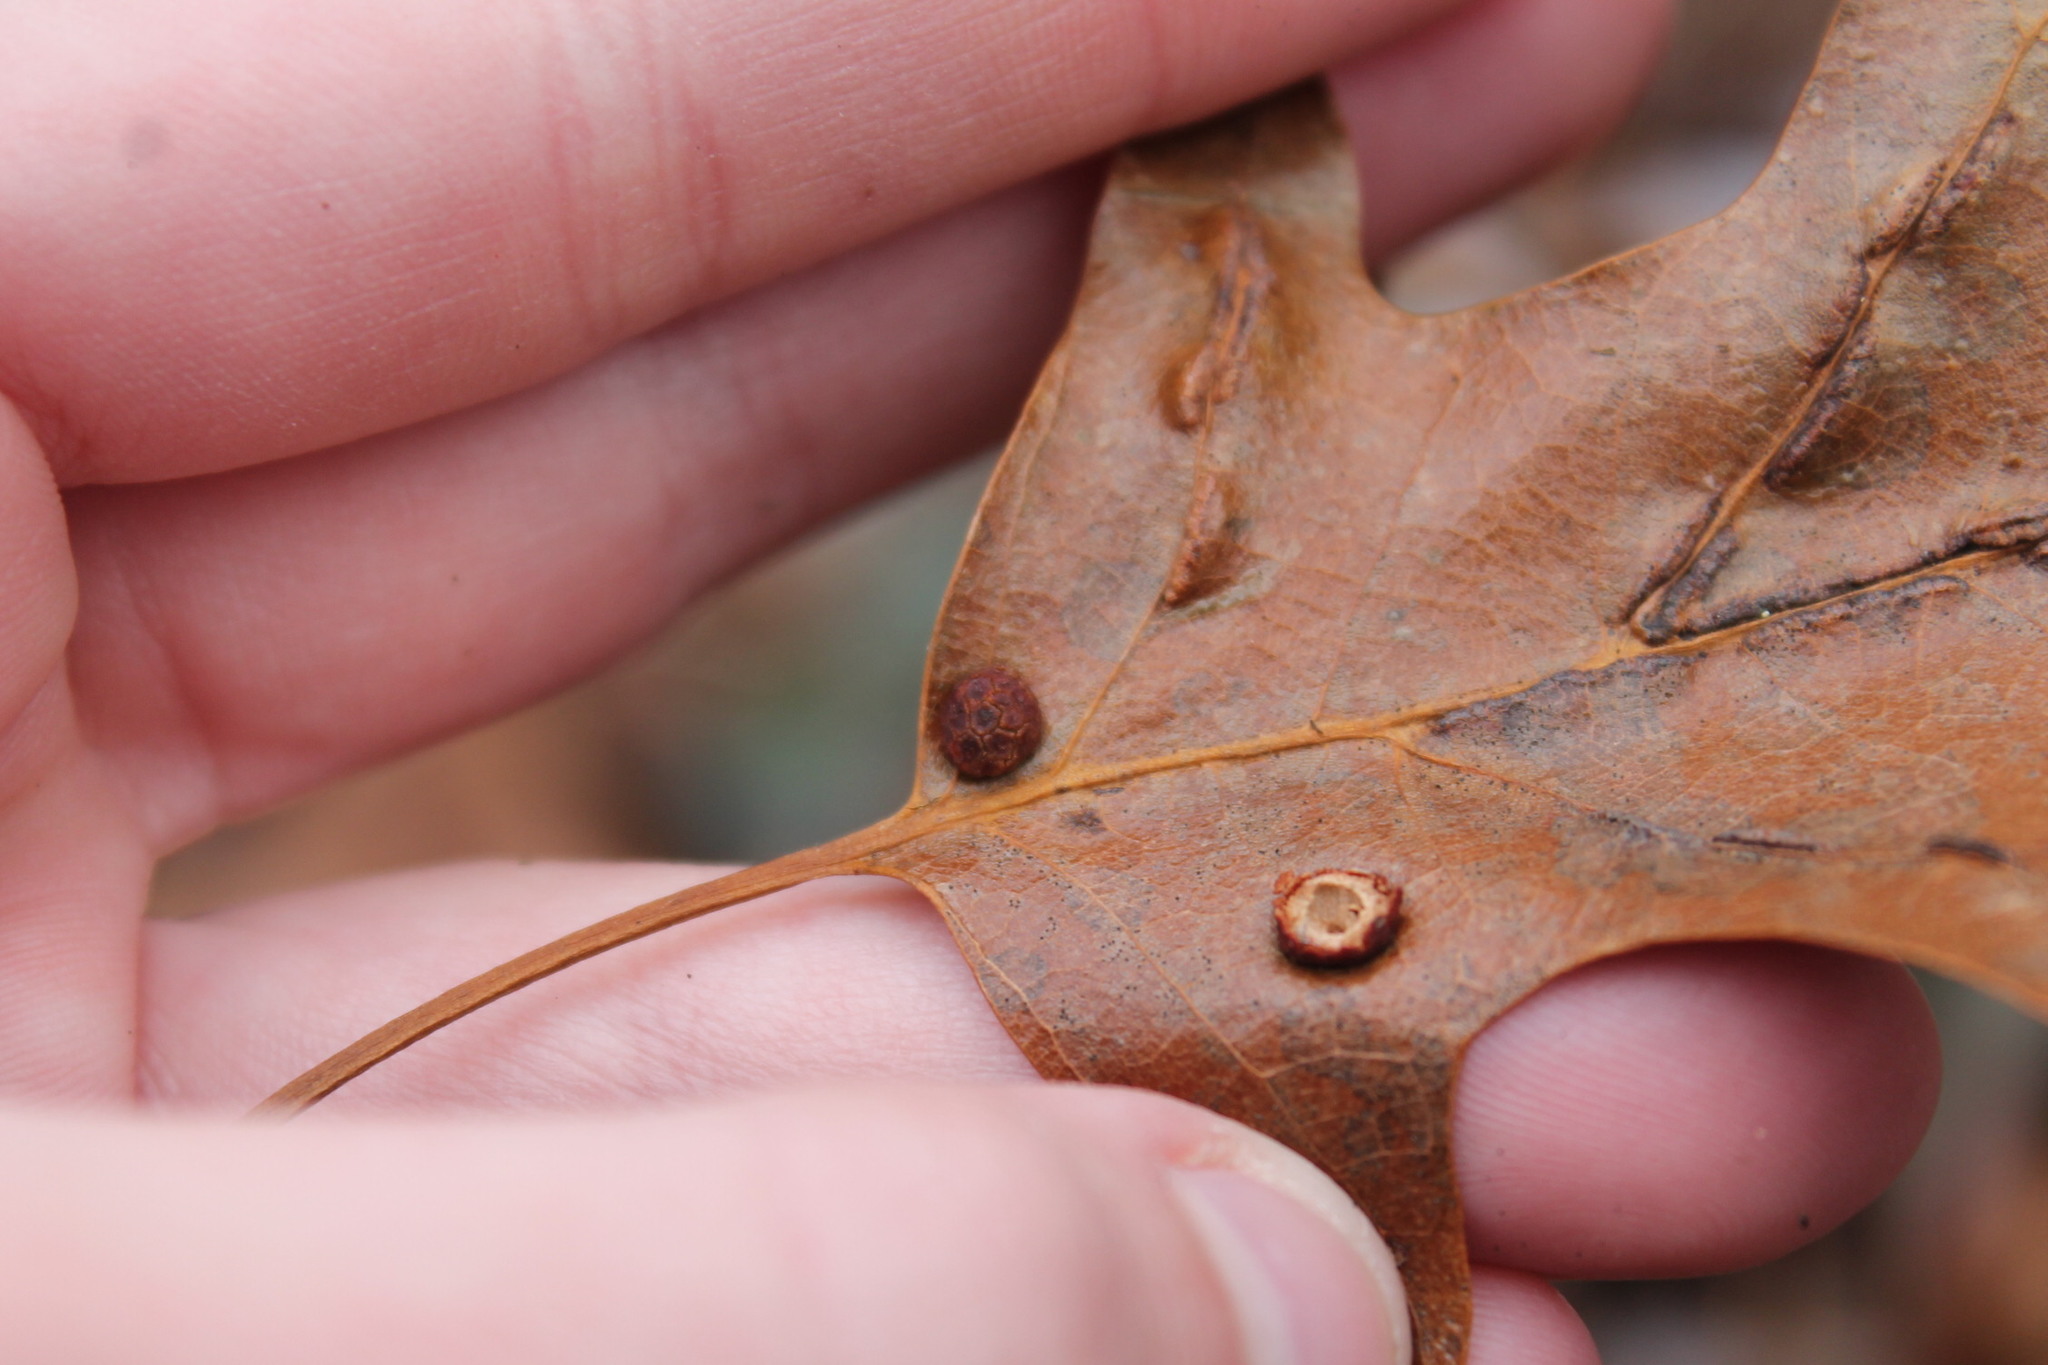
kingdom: Animalia
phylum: Arthropoda
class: Insecta
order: Diptera
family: Cecidomyiidae
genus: Polystepha
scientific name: Polystepha pilulae
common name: Oak leaf gall midge
